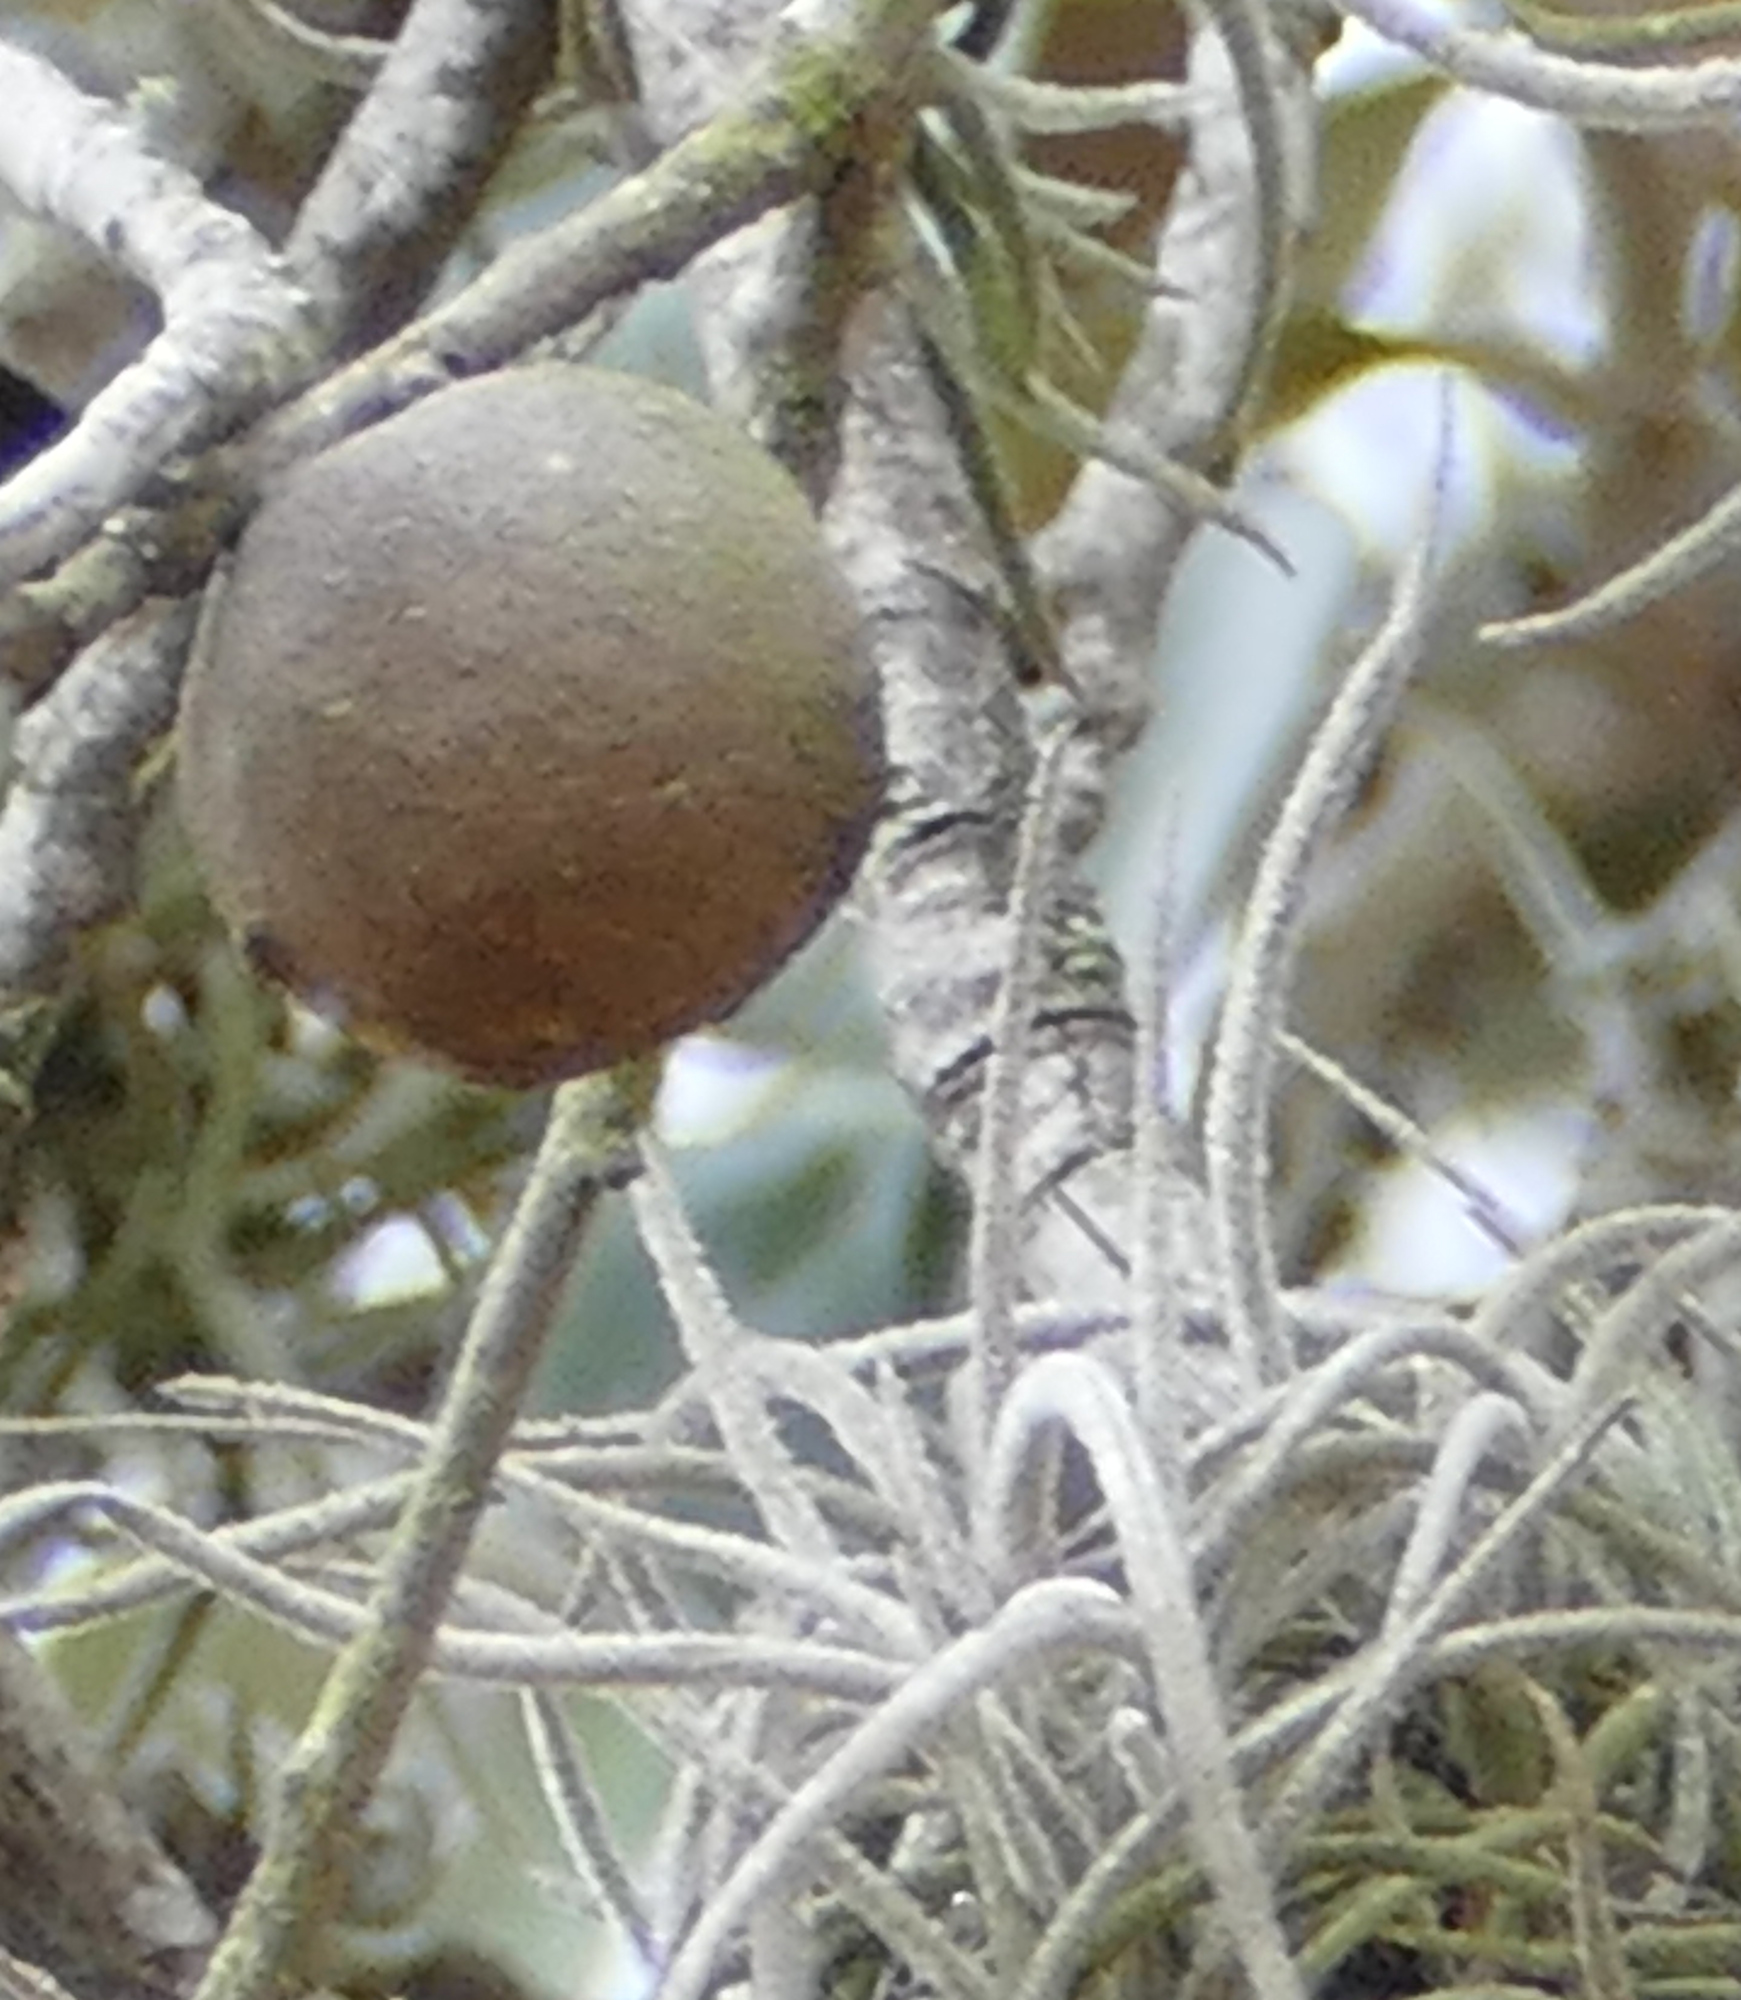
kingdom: Animalia
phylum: Arthropoda
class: Insecta
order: Hymenoptera
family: Cynipidae
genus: Disholcaspis
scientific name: Disholcaspis
